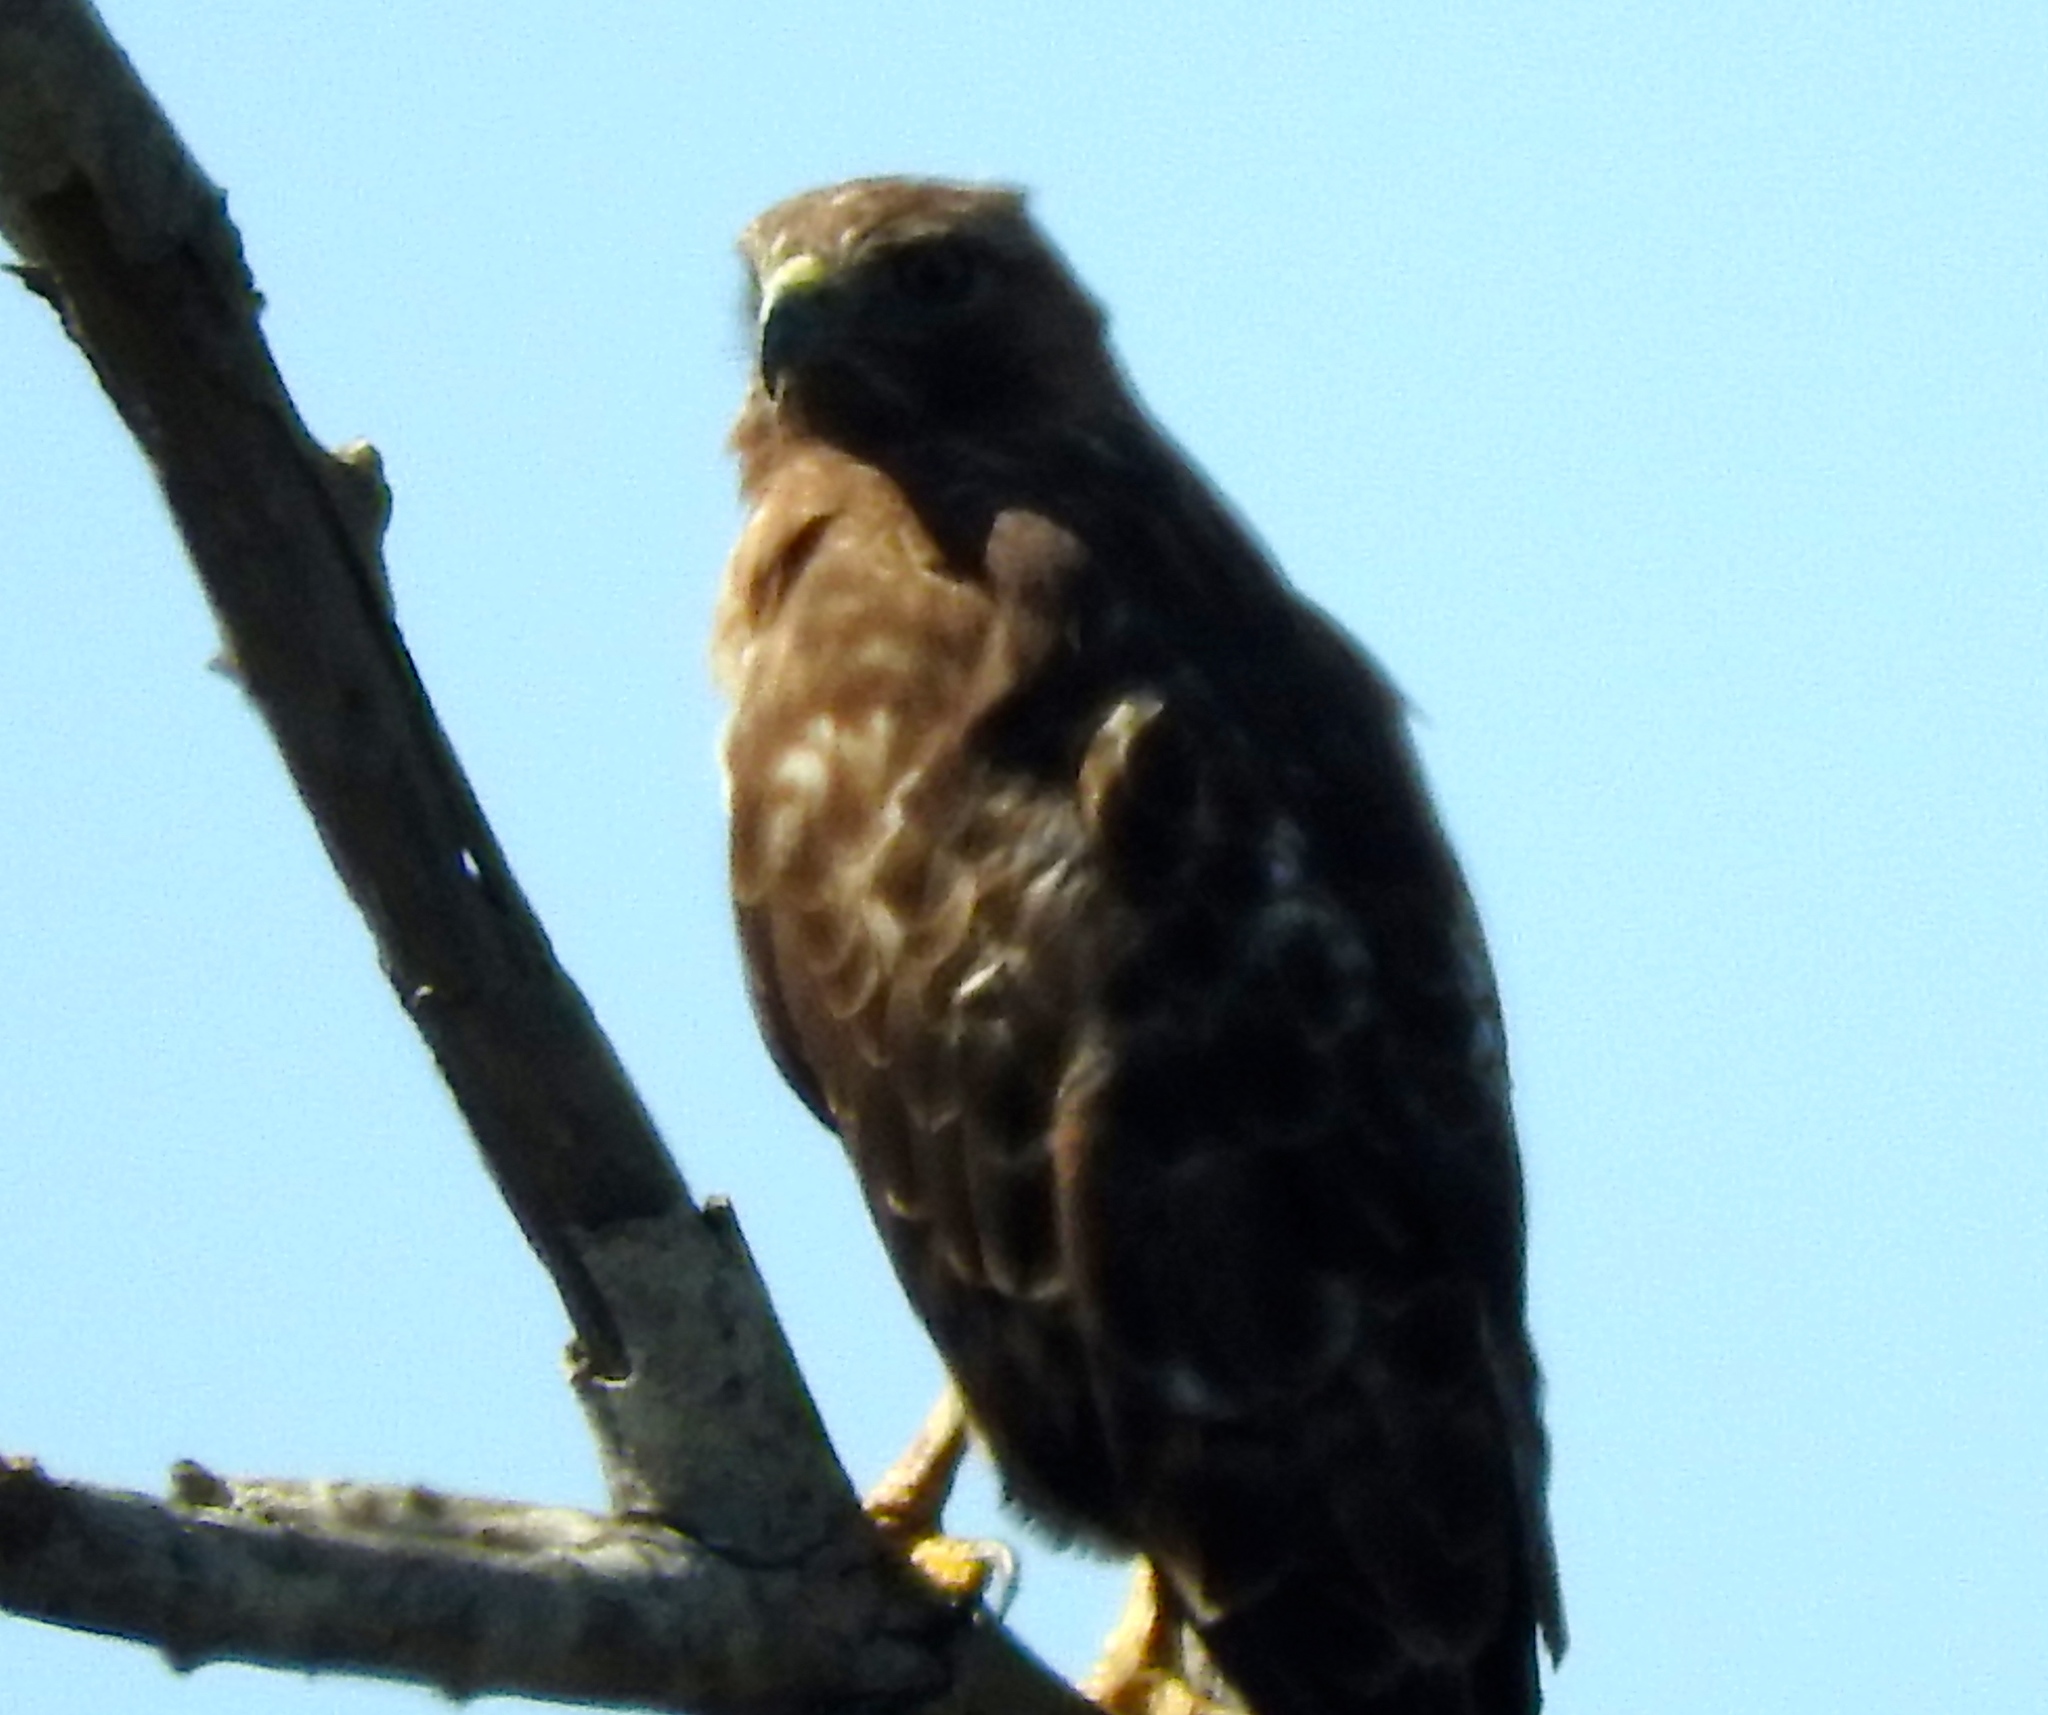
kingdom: Animalia
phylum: Chordata
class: Aves
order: Accipitriformes
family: Accipitridae
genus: Buteo
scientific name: Buteo jamaicensis
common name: Red-tailed hawk
